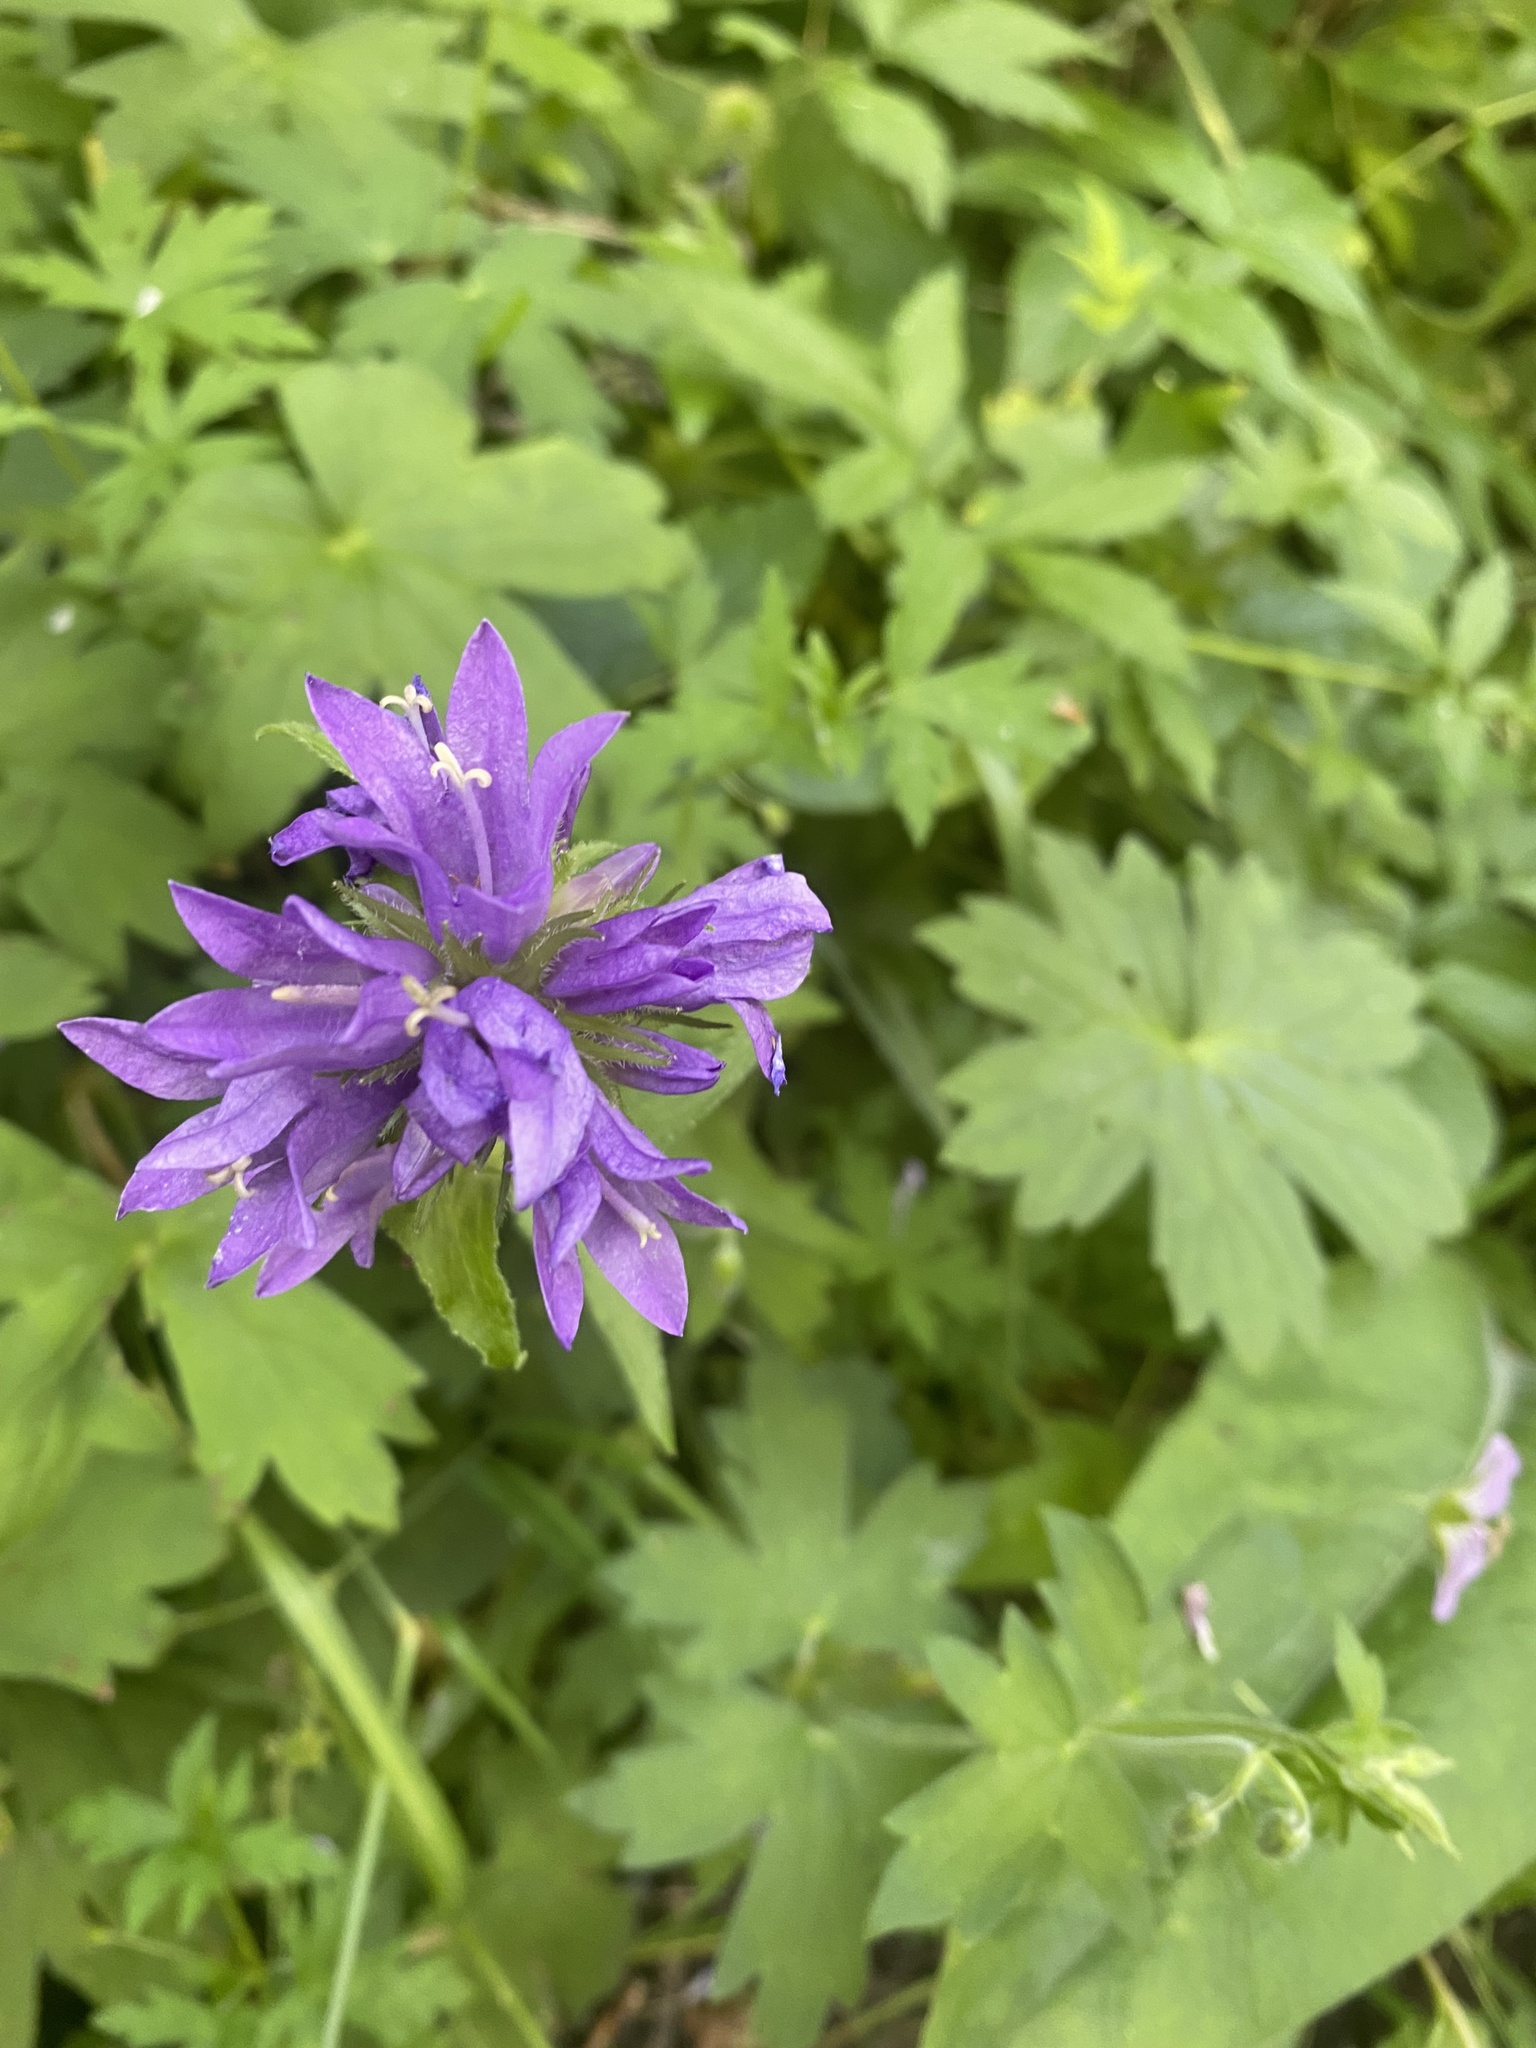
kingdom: Plantae
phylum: Tracheophyta
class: Magnoliopsida
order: Asterales
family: Campanulaceae
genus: Campanula
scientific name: Campanula glomerata
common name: Clustered bellflower
